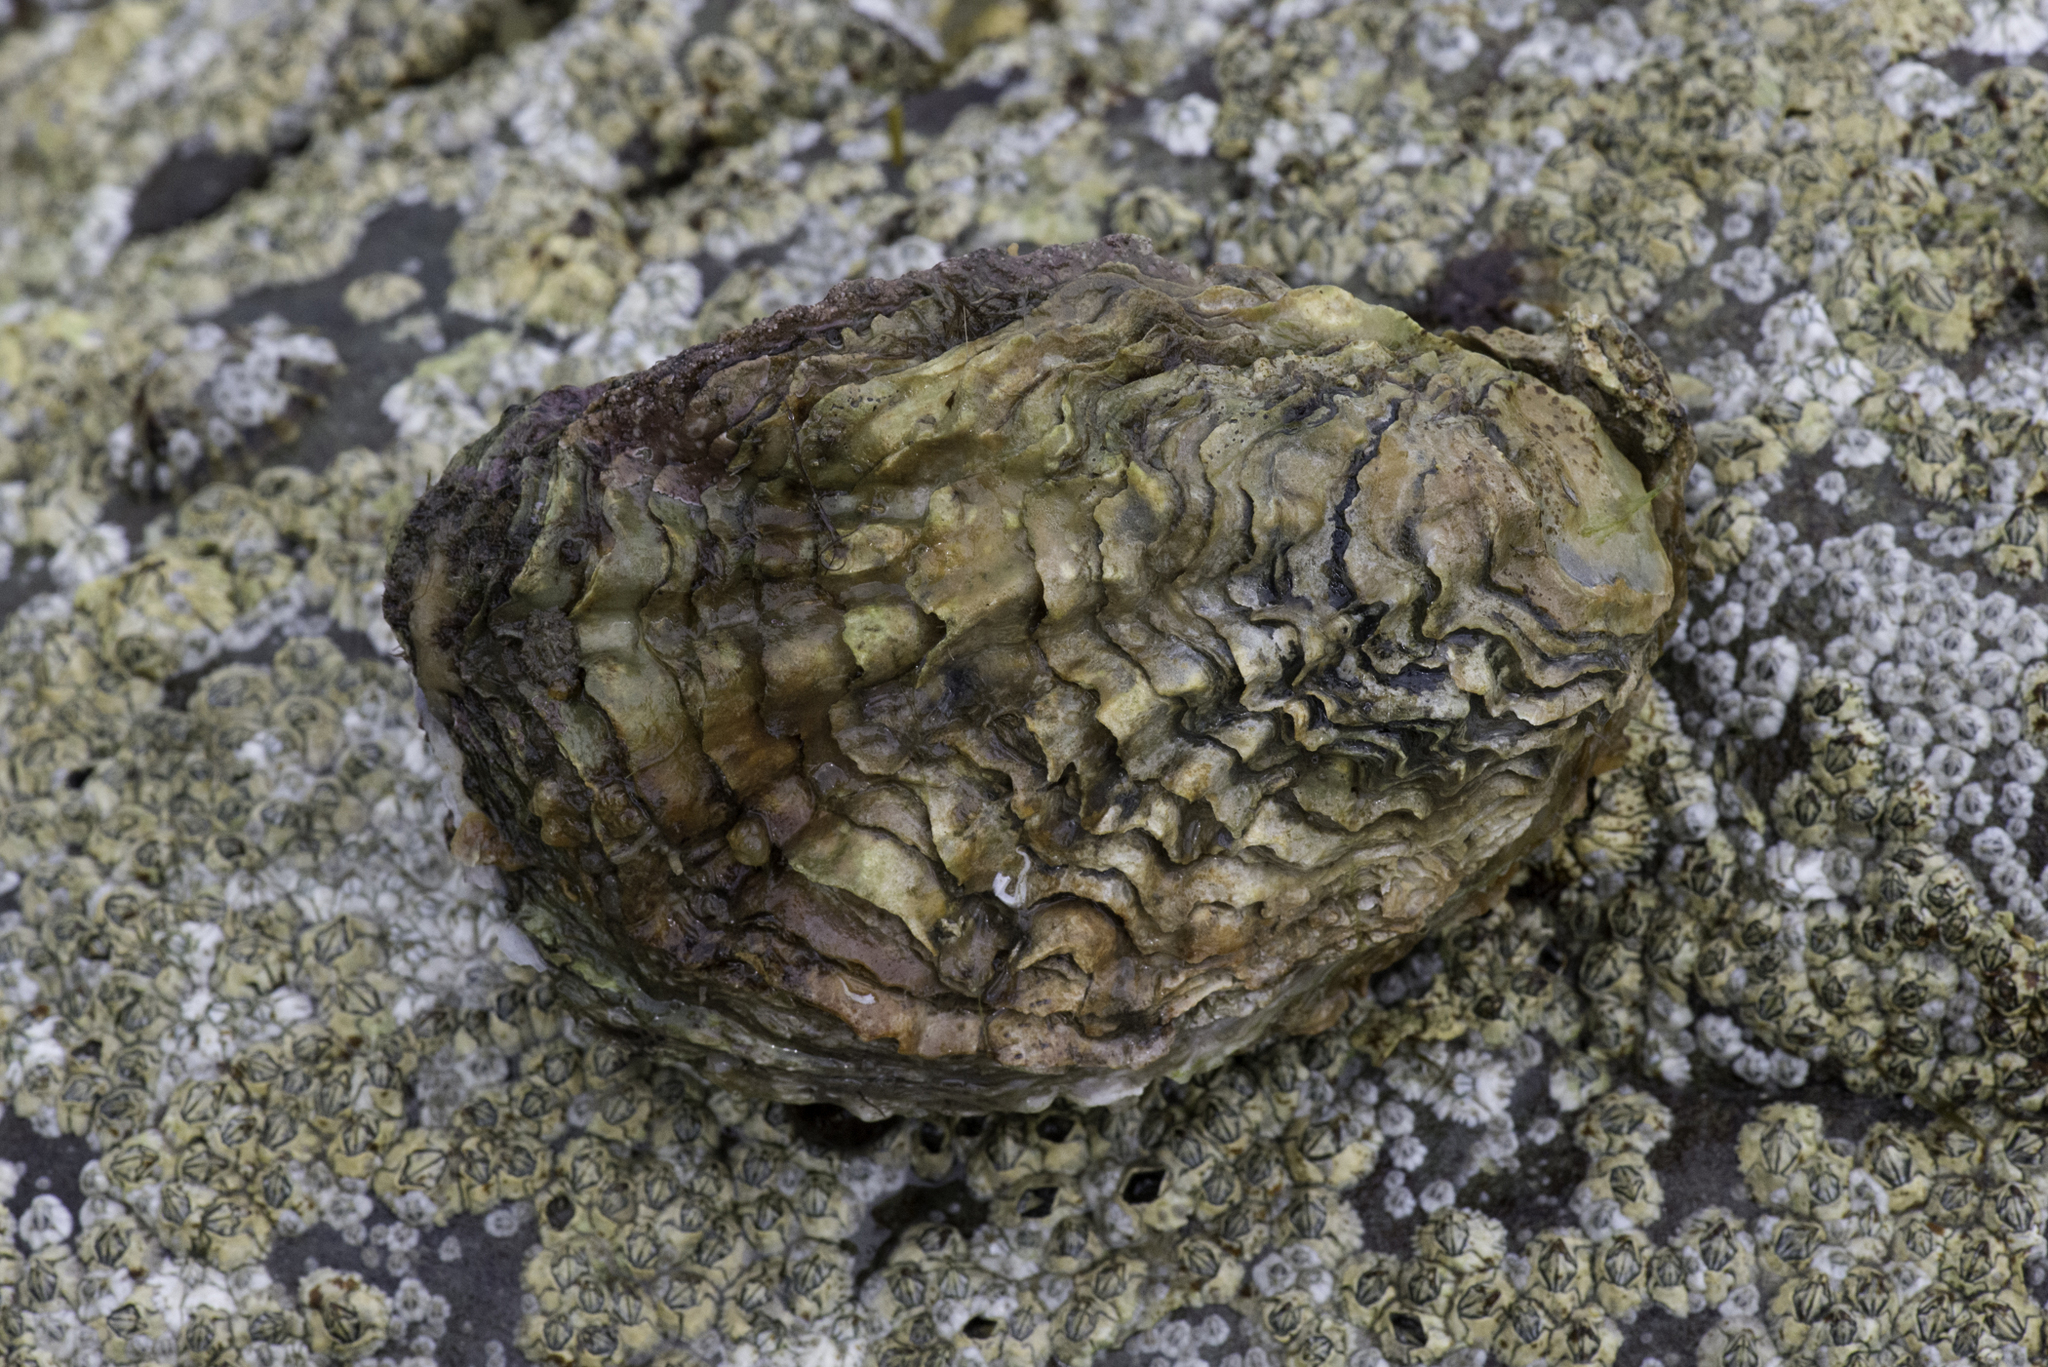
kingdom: Animalia
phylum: Mollusca
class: Bivalvia
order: Ostreida
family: Ostreidae
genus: Magallana
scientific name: Magallana gigas
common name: Pacific oyster
